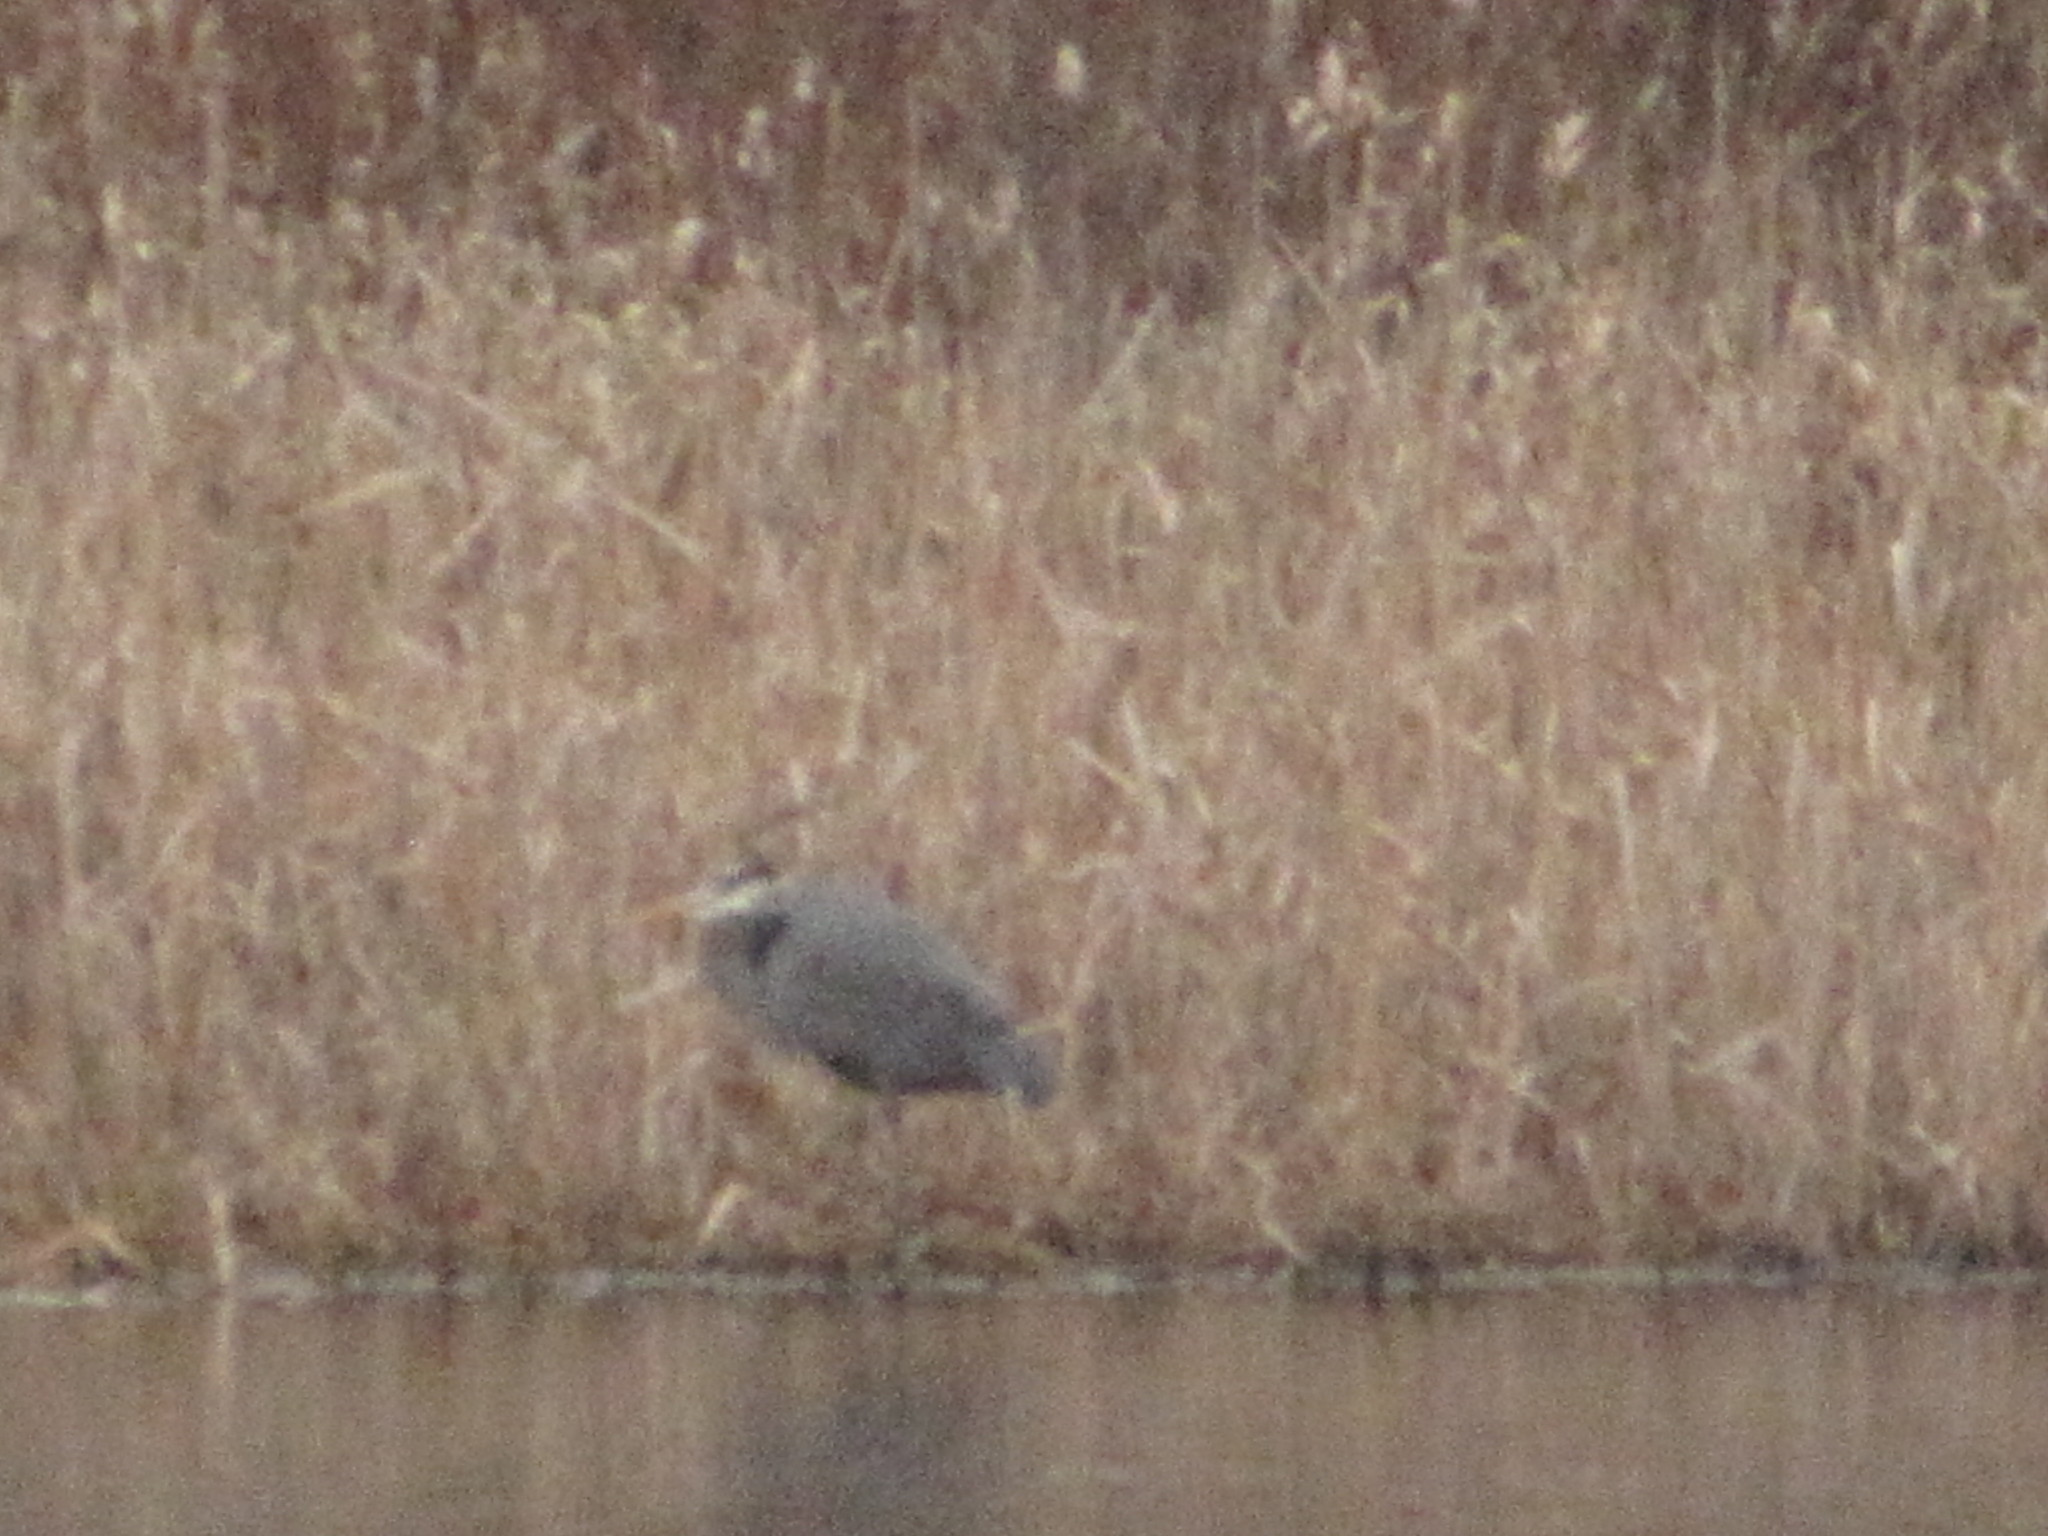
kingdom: Animalia
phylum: Chordata
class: Aves
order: Pelecaniformes
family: Ardeidae
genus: Ardea
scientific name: Ardea herodias
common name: Great blue heron
